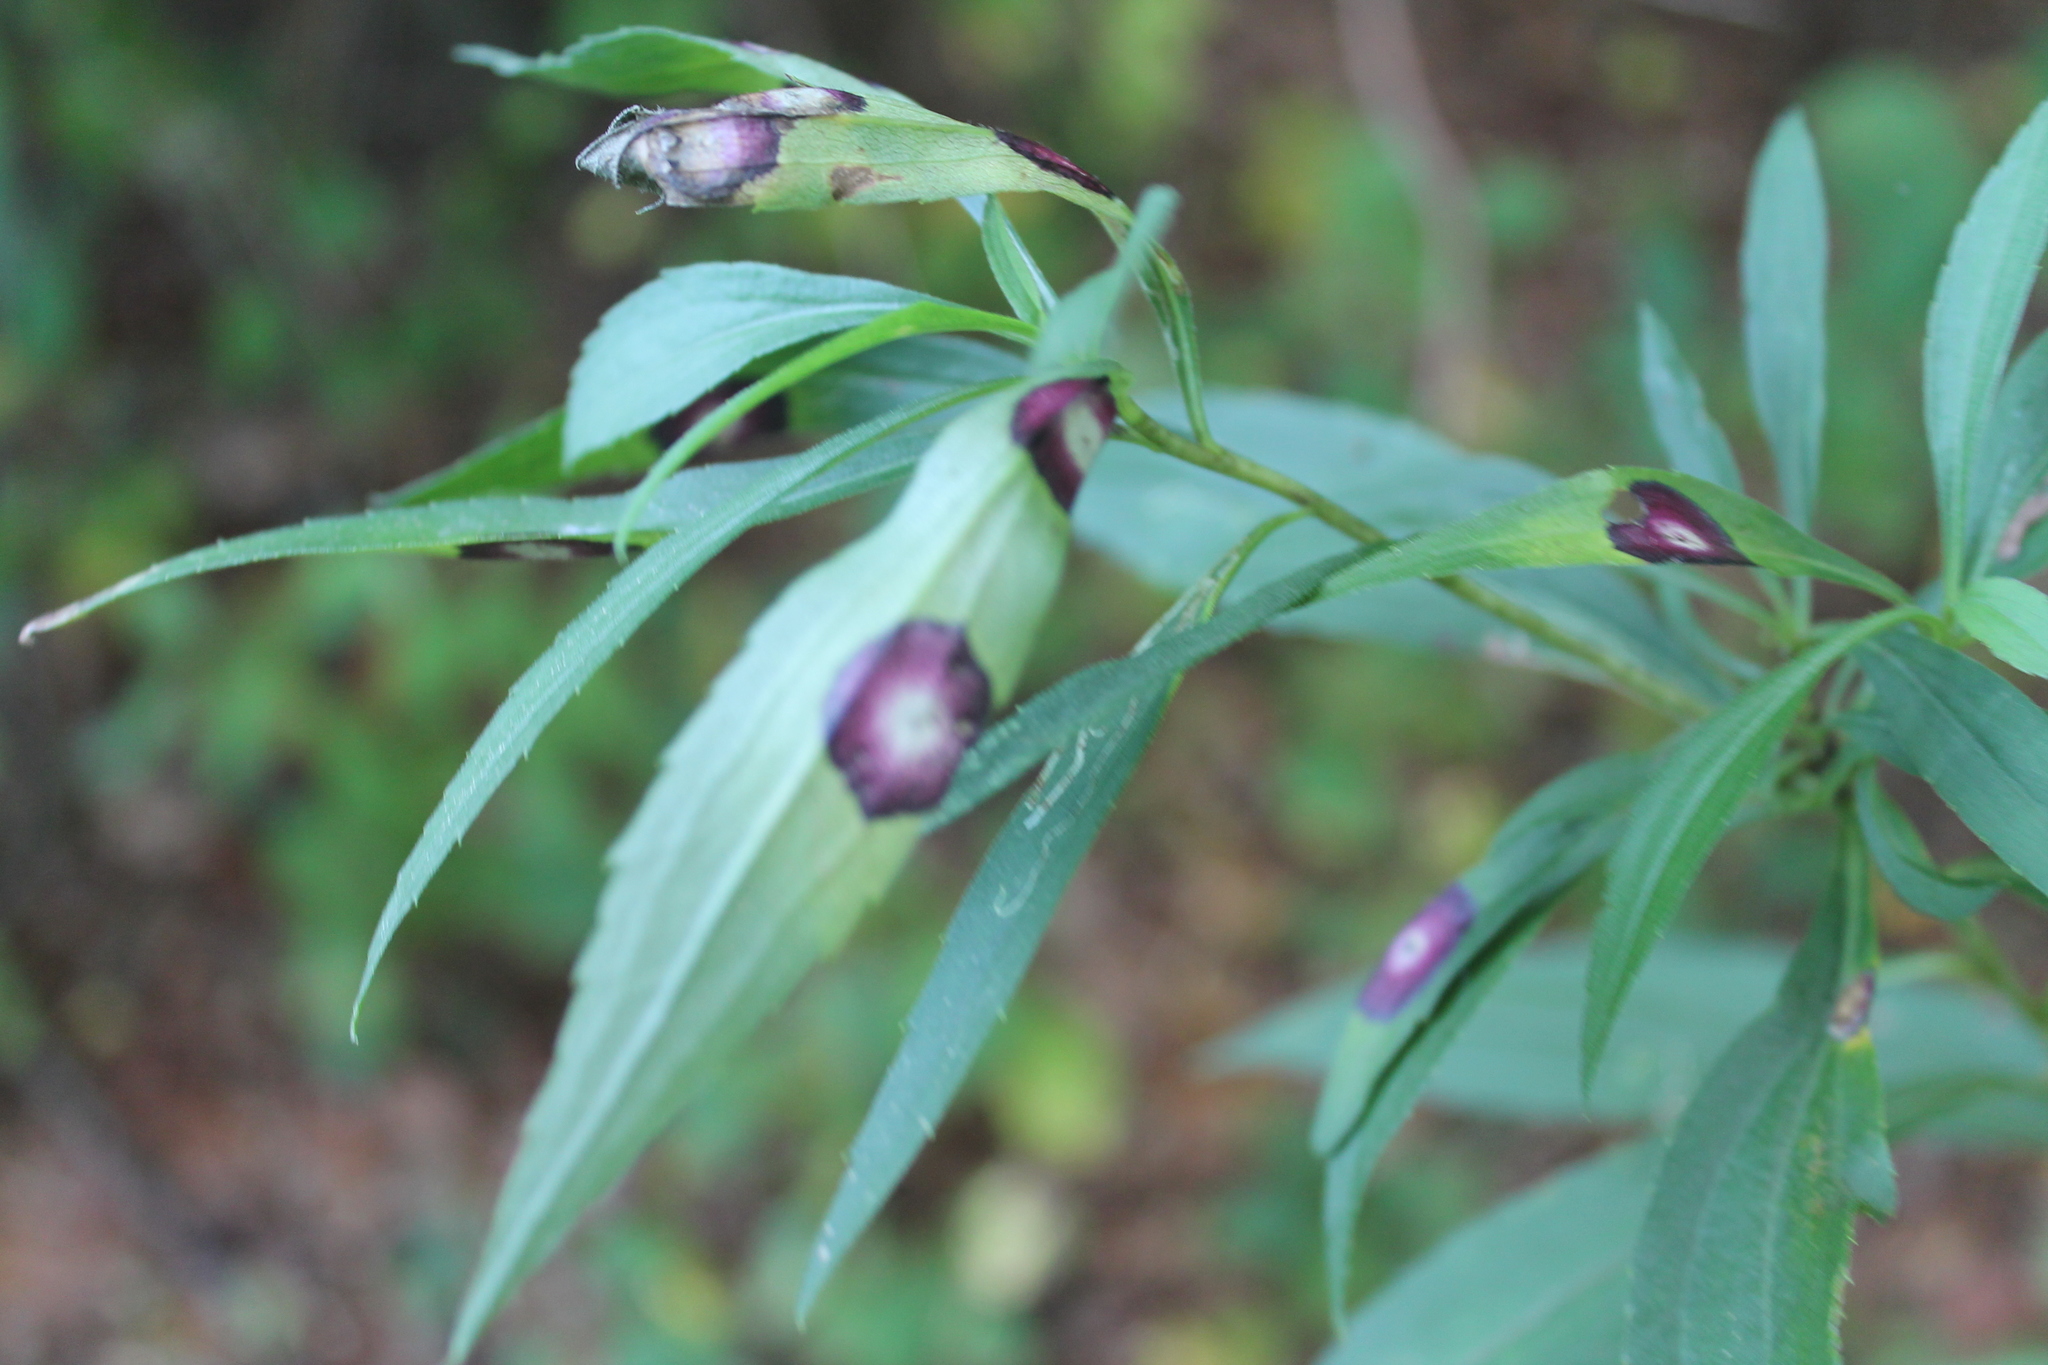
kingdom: Animalia
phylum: Arthropoda
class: Insecta
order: Diptera
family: Cecidomyiidae
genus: Asteromyia
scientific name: Asteromyia carbonifera
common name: Carbonifera goldenrod gall midge
